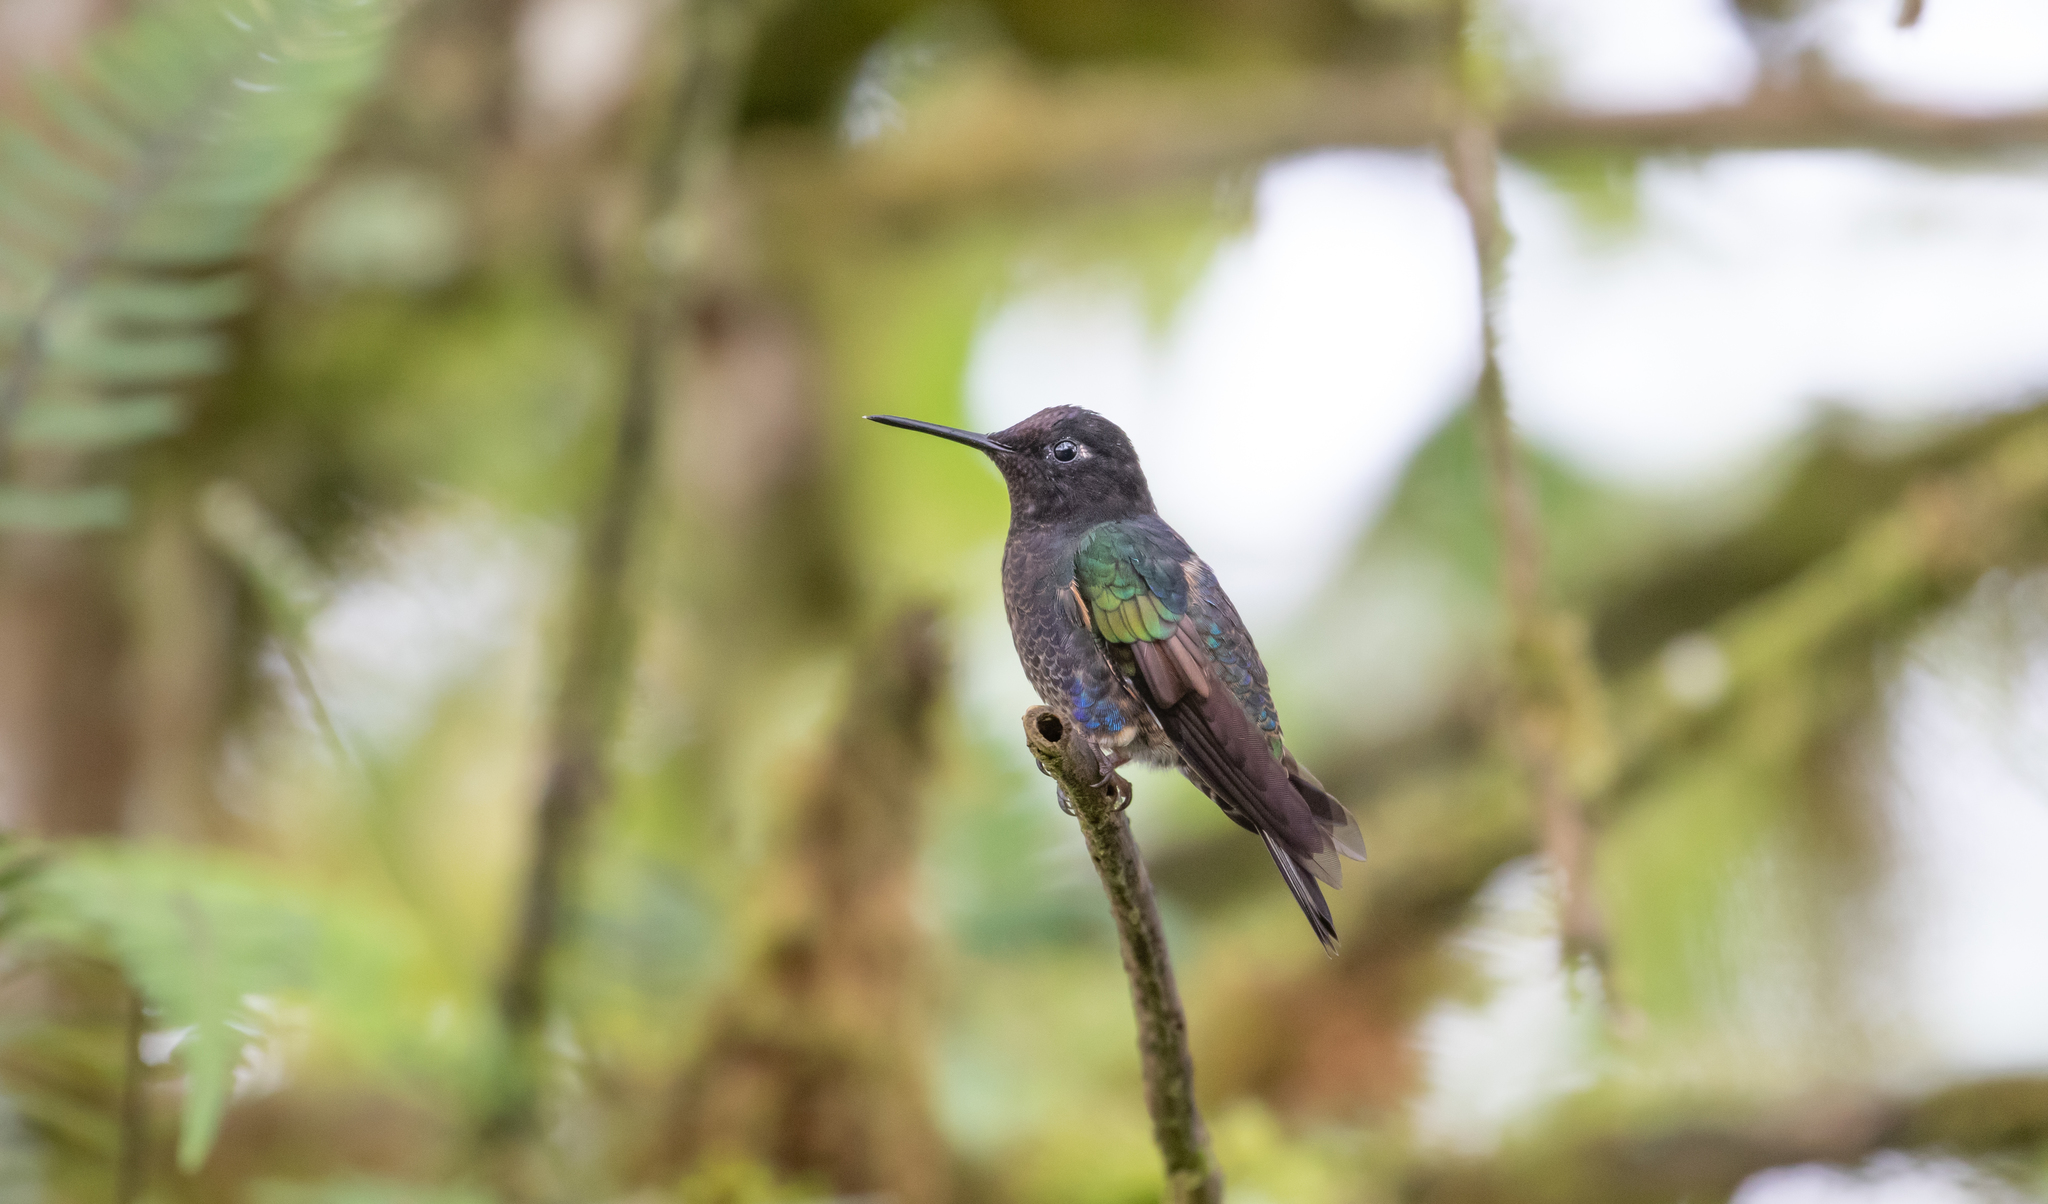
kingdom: Animalia
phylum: Chordata
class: Aves
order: Apodiformes
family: Trochilidae
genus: Boissonneaua
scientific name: Boissonneaua jardini
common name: Velvet-purple coronet
